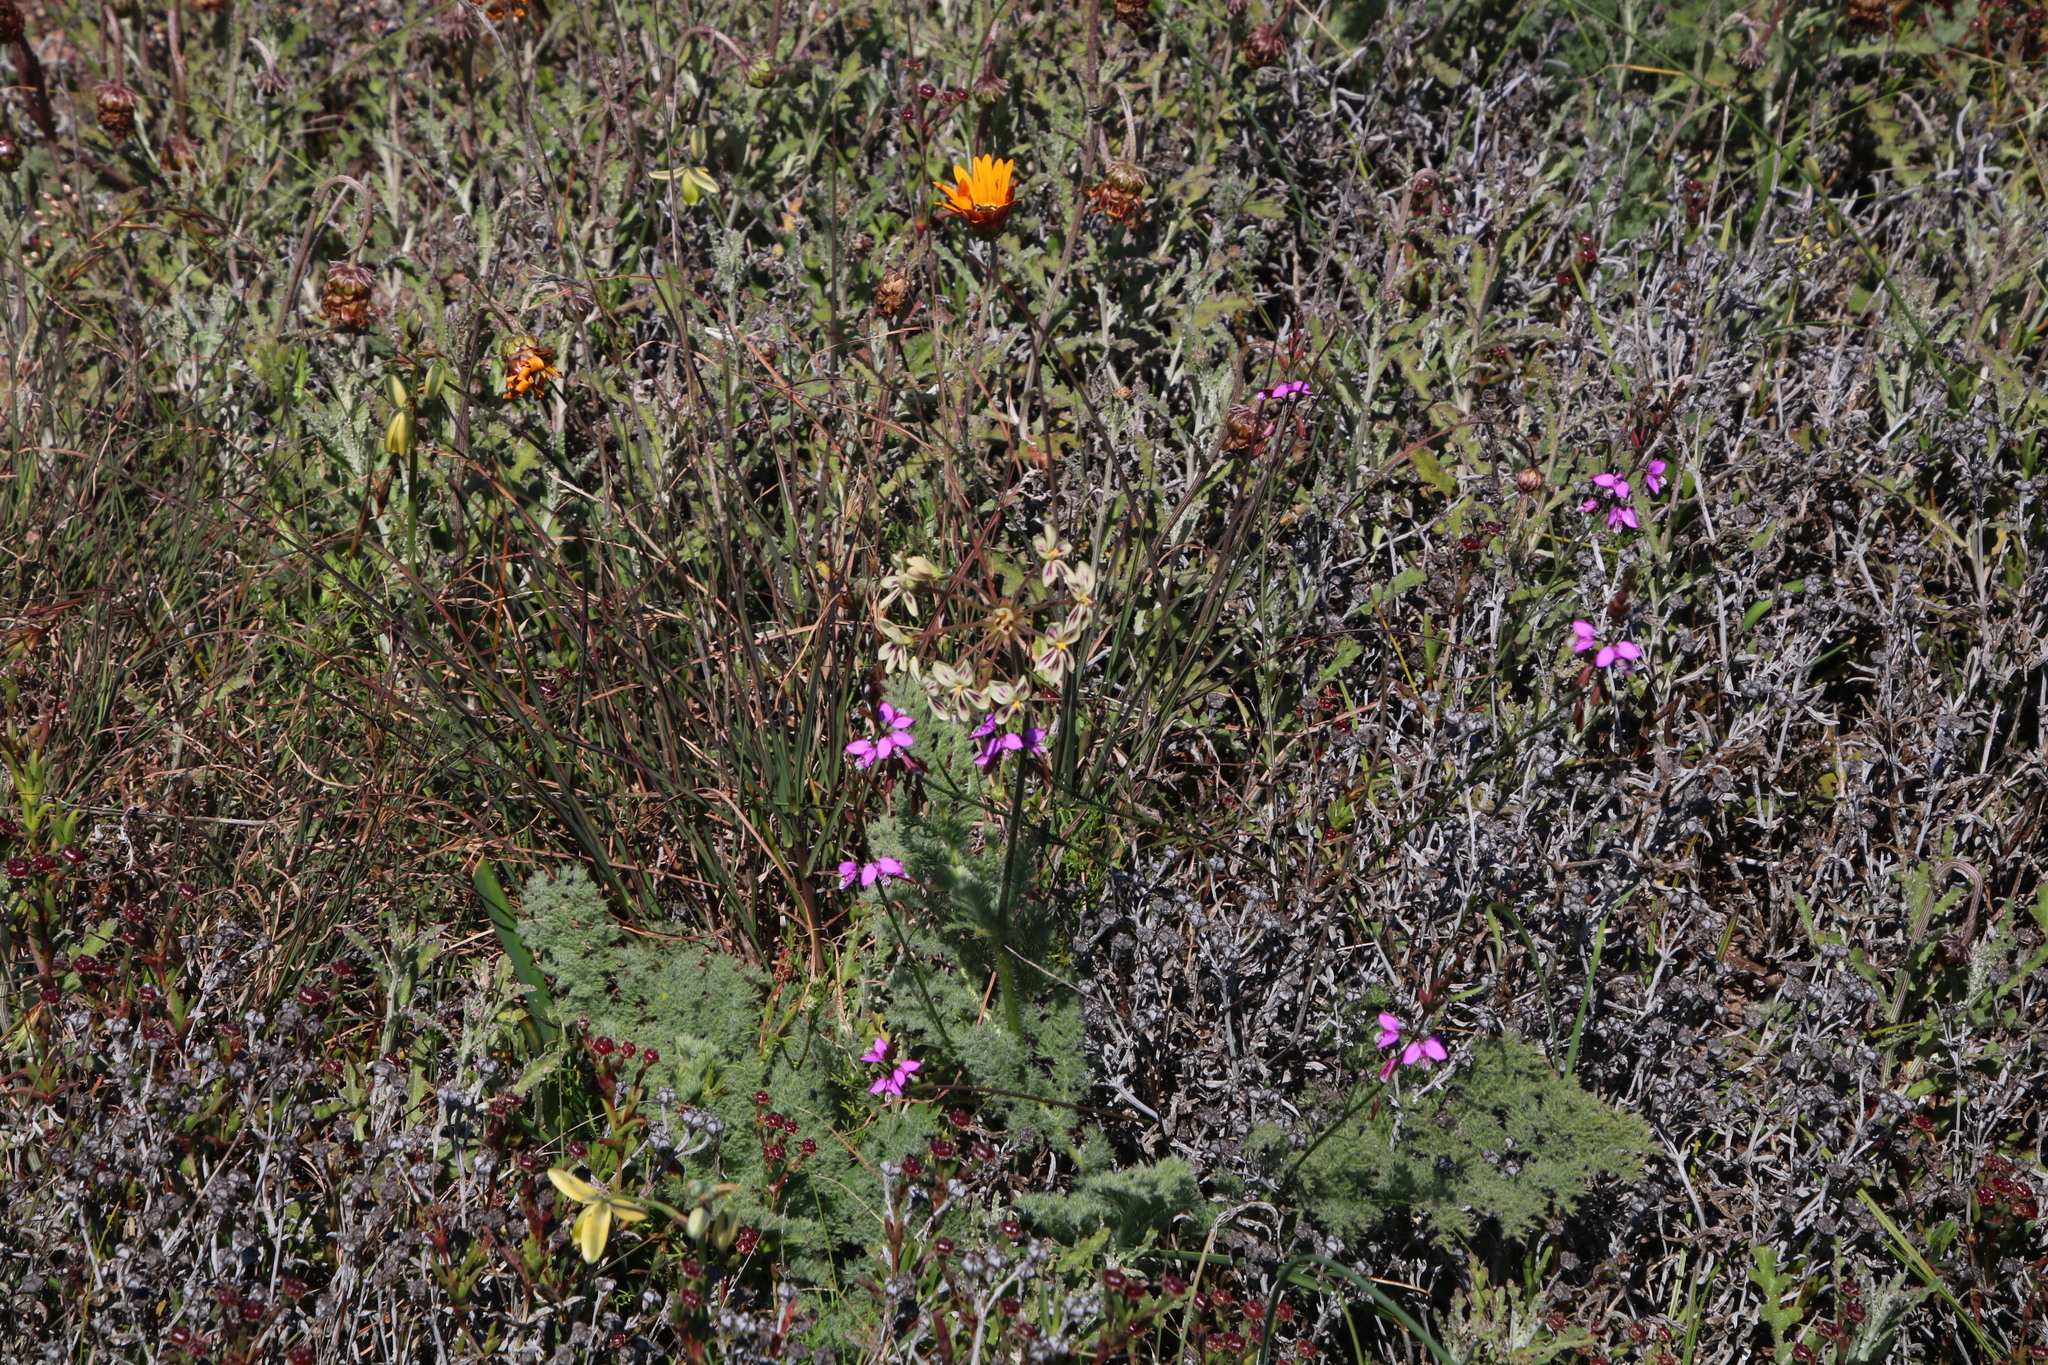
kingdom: Plantae
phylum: Tracheophyta
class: Magnoliopsida
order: Geraniales
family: Geraniaceae
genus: Pelargonium
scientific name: Pelargonium triste
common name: Night-scent pelargonium
